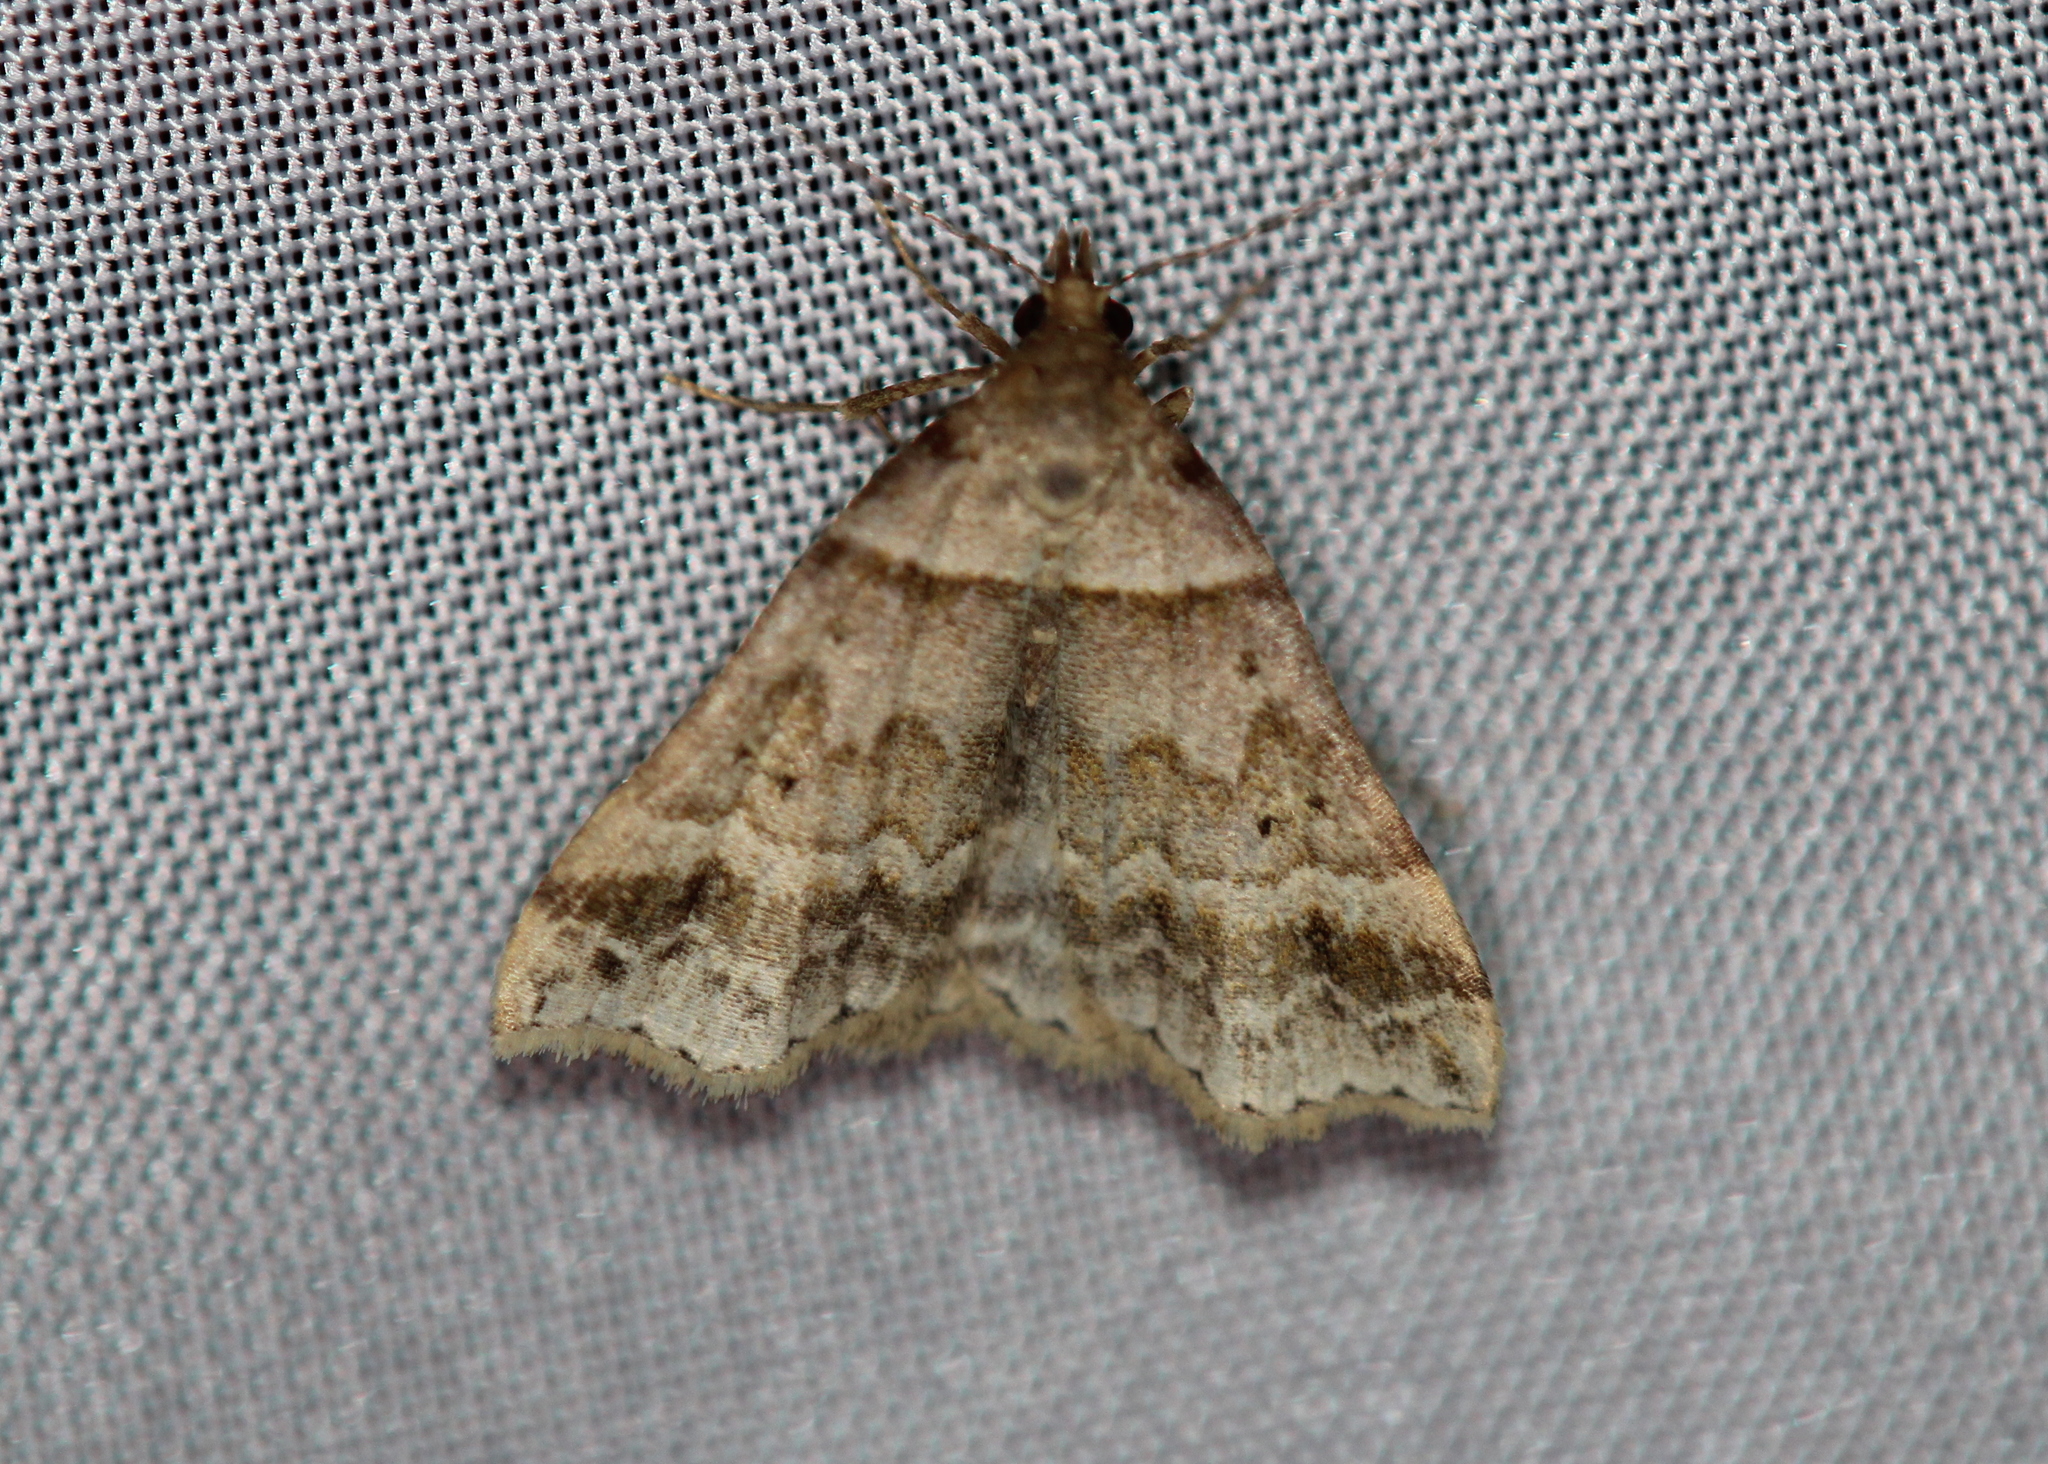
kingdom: Animalia
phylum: Arthropoda
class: Insecta
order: Lepidoptera
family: Erebidae
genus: Phaeolita
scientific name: Phaeolita pyramusalis
